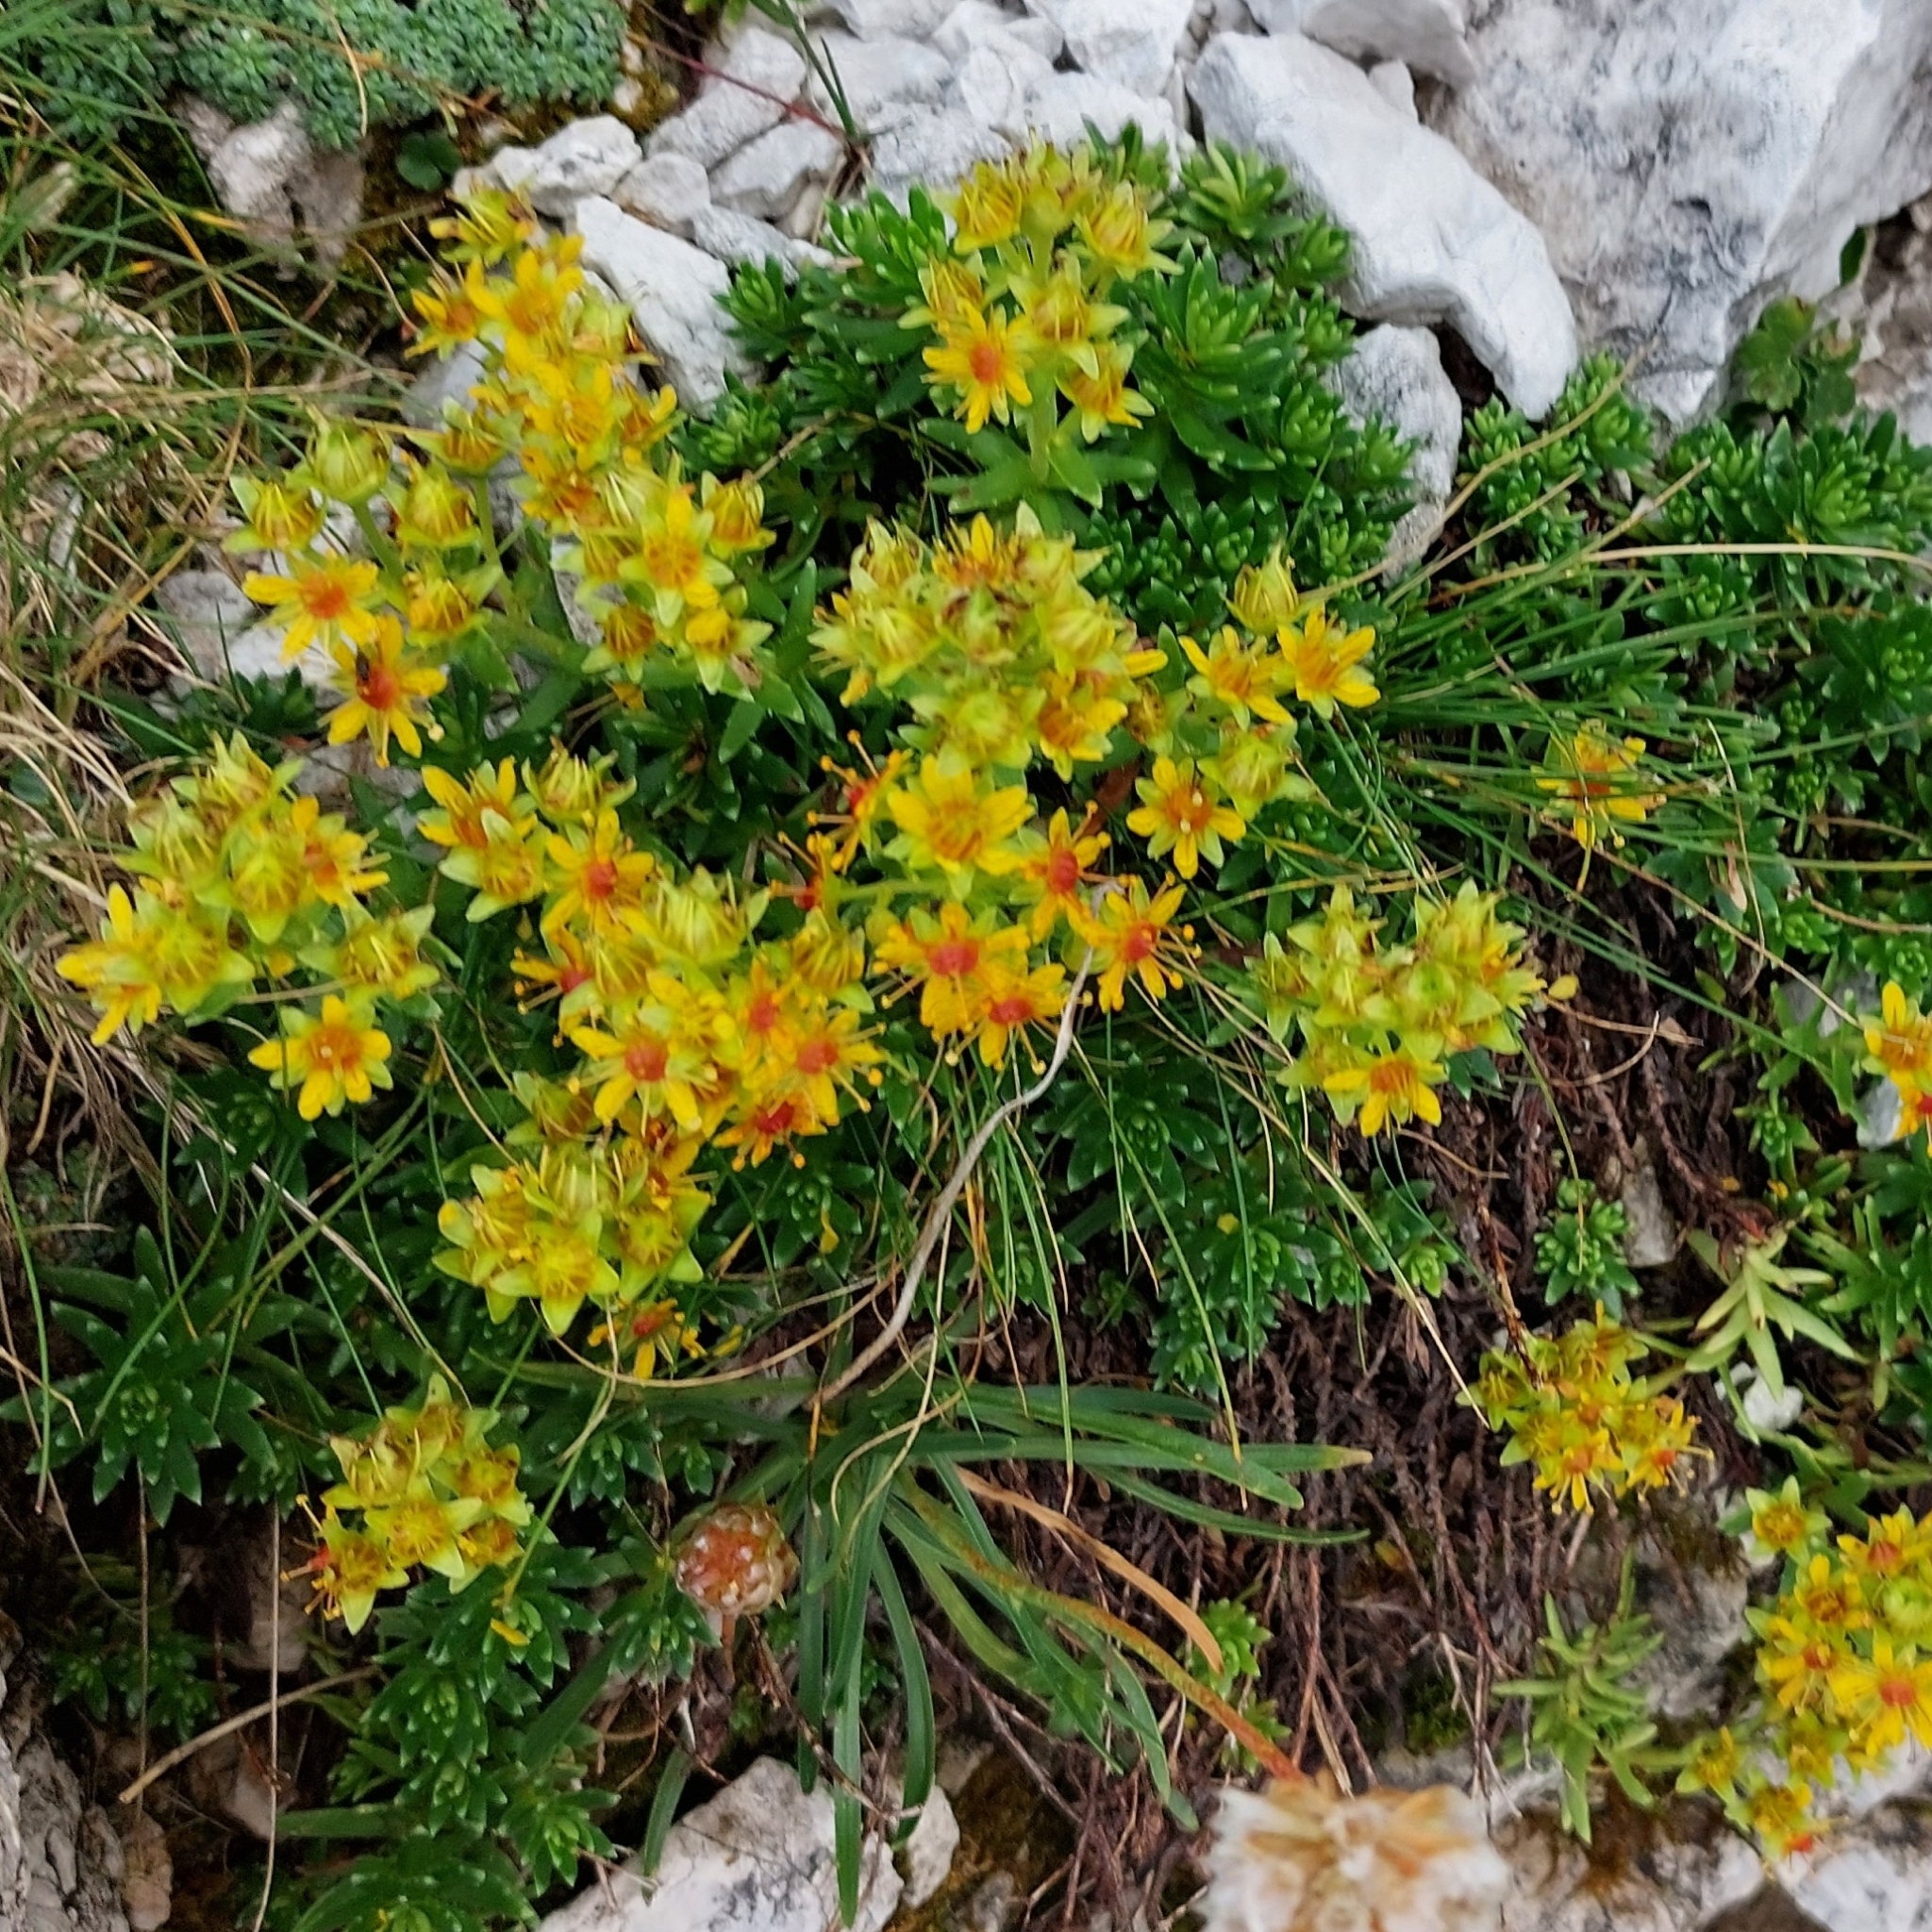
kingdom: Plantae
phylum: Tracheophyta
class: Magnoliopsida
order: Saxifragales
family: Saxifragaceae
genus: Saxifraga
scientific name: Saxifraga aizoides
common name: Yellow mountain saxifrage
